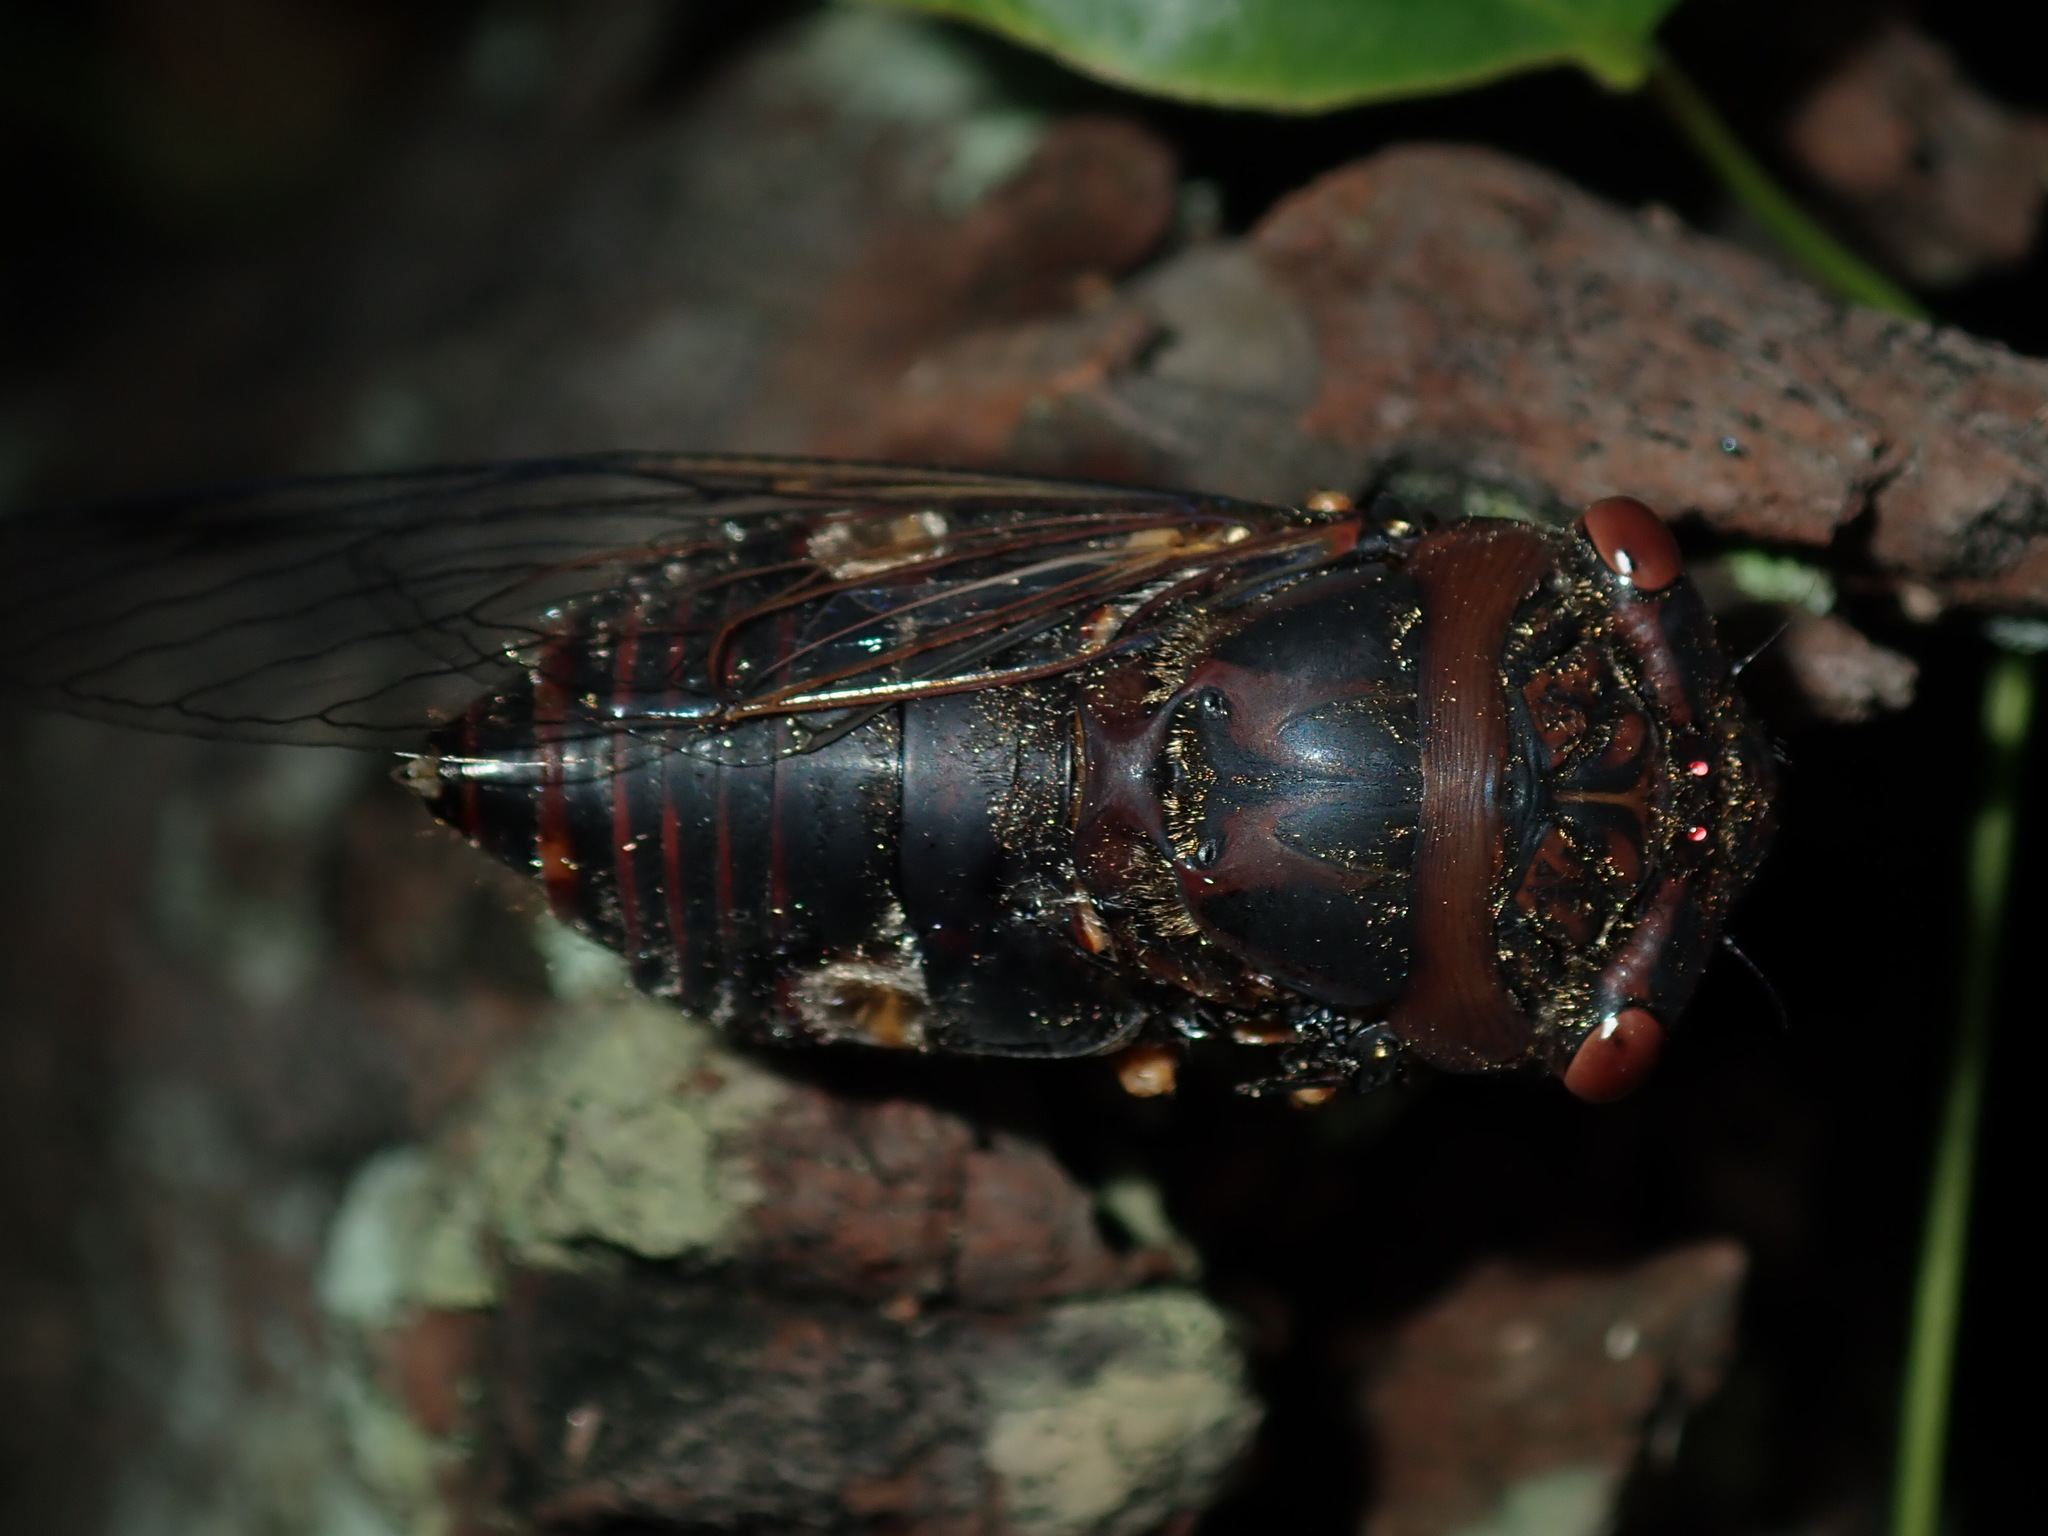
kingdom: Animalia
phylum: Arthropoda
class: Insecta
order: Hemiptera
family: Cicadidae
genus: Psaltoda
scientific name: Psaltoda plaga
